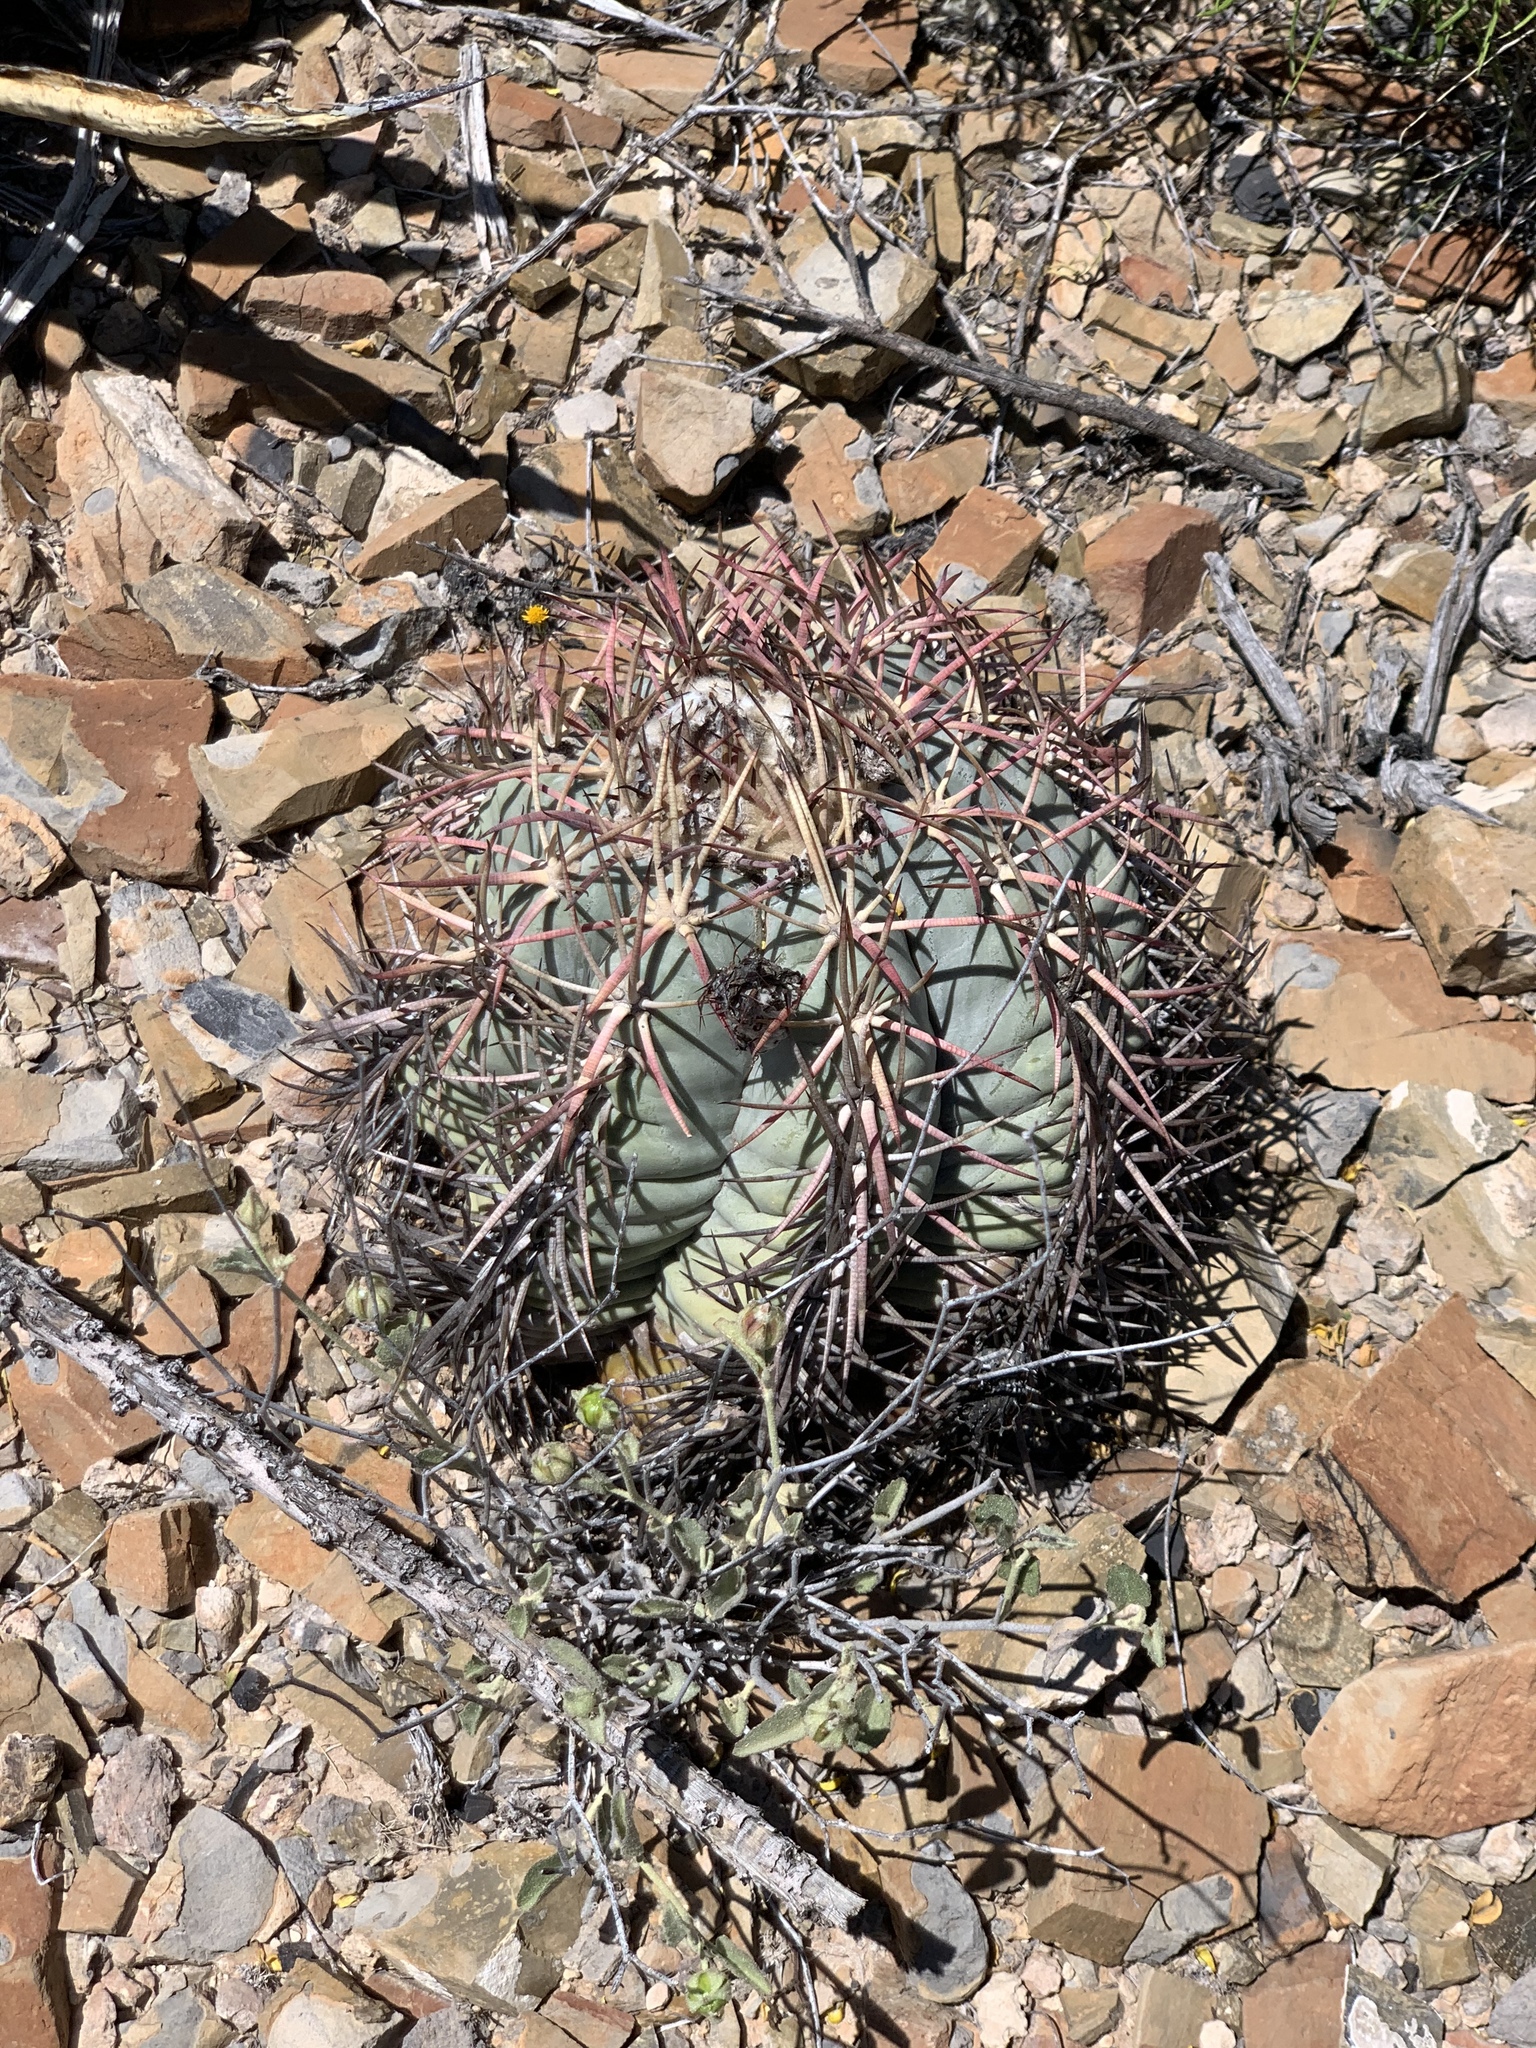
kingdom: Plantae
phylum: Tracheophyta
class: Magnoliopsida
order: Caryophyllales
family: Cactaceae
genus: Echinocactus
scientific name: Echinocactus horizonthalonius
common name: Devilshead
